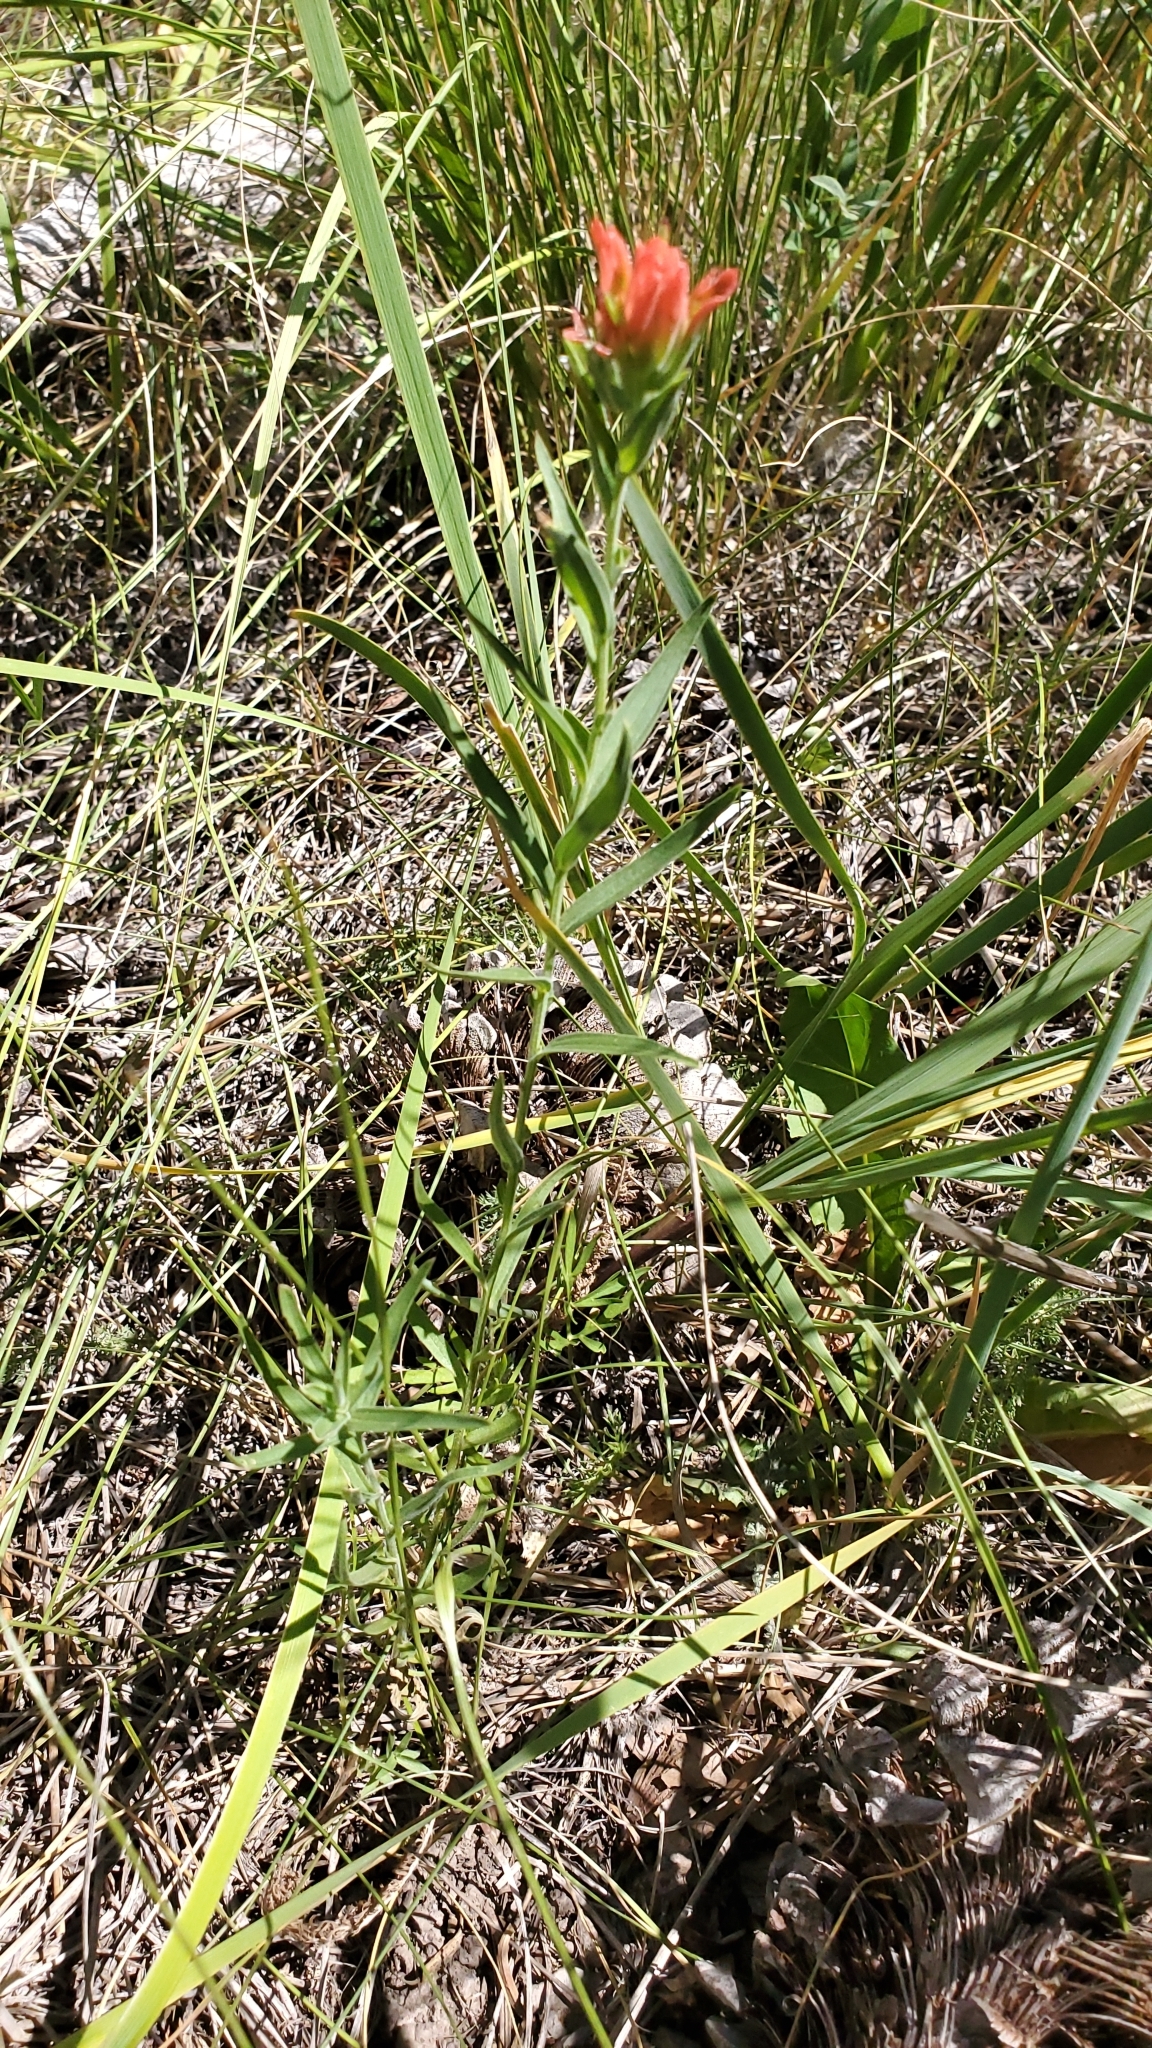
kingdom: Plantae
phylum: Tracheophyta
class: Magnoliopsida
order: Lamiales
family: Orobanchaceae
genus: Castilleja
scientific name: Castilleja miniata
